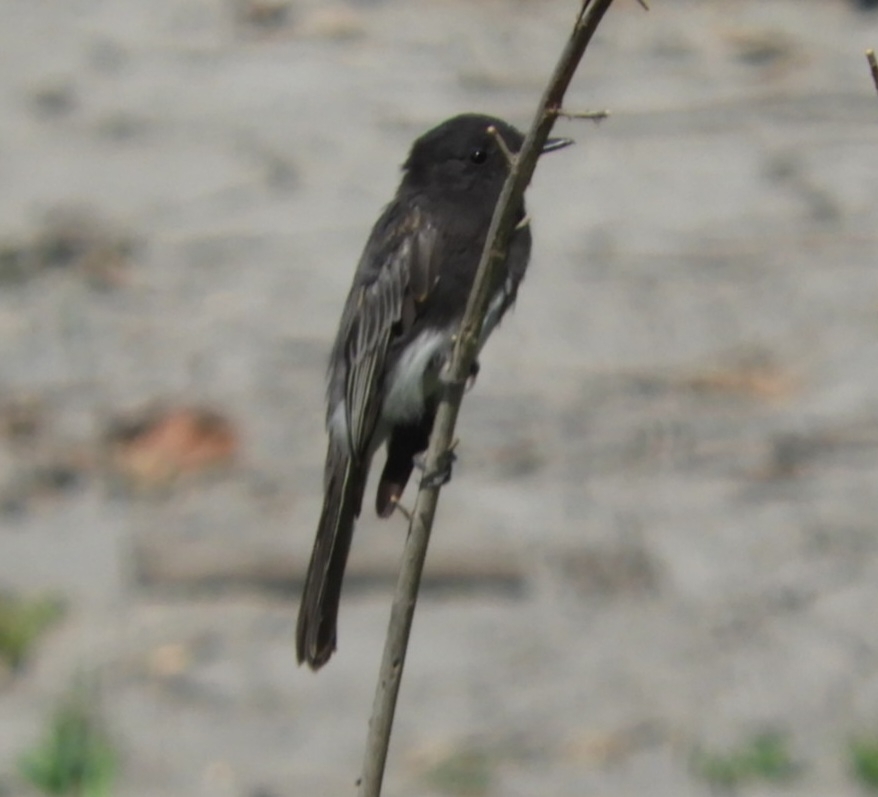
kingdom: Animalia
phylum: Chordata
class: Aves
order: Passeriformes
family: Tyrannidae
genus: Sayornis
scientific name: Sayornis nigricans
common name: Black phoebe
